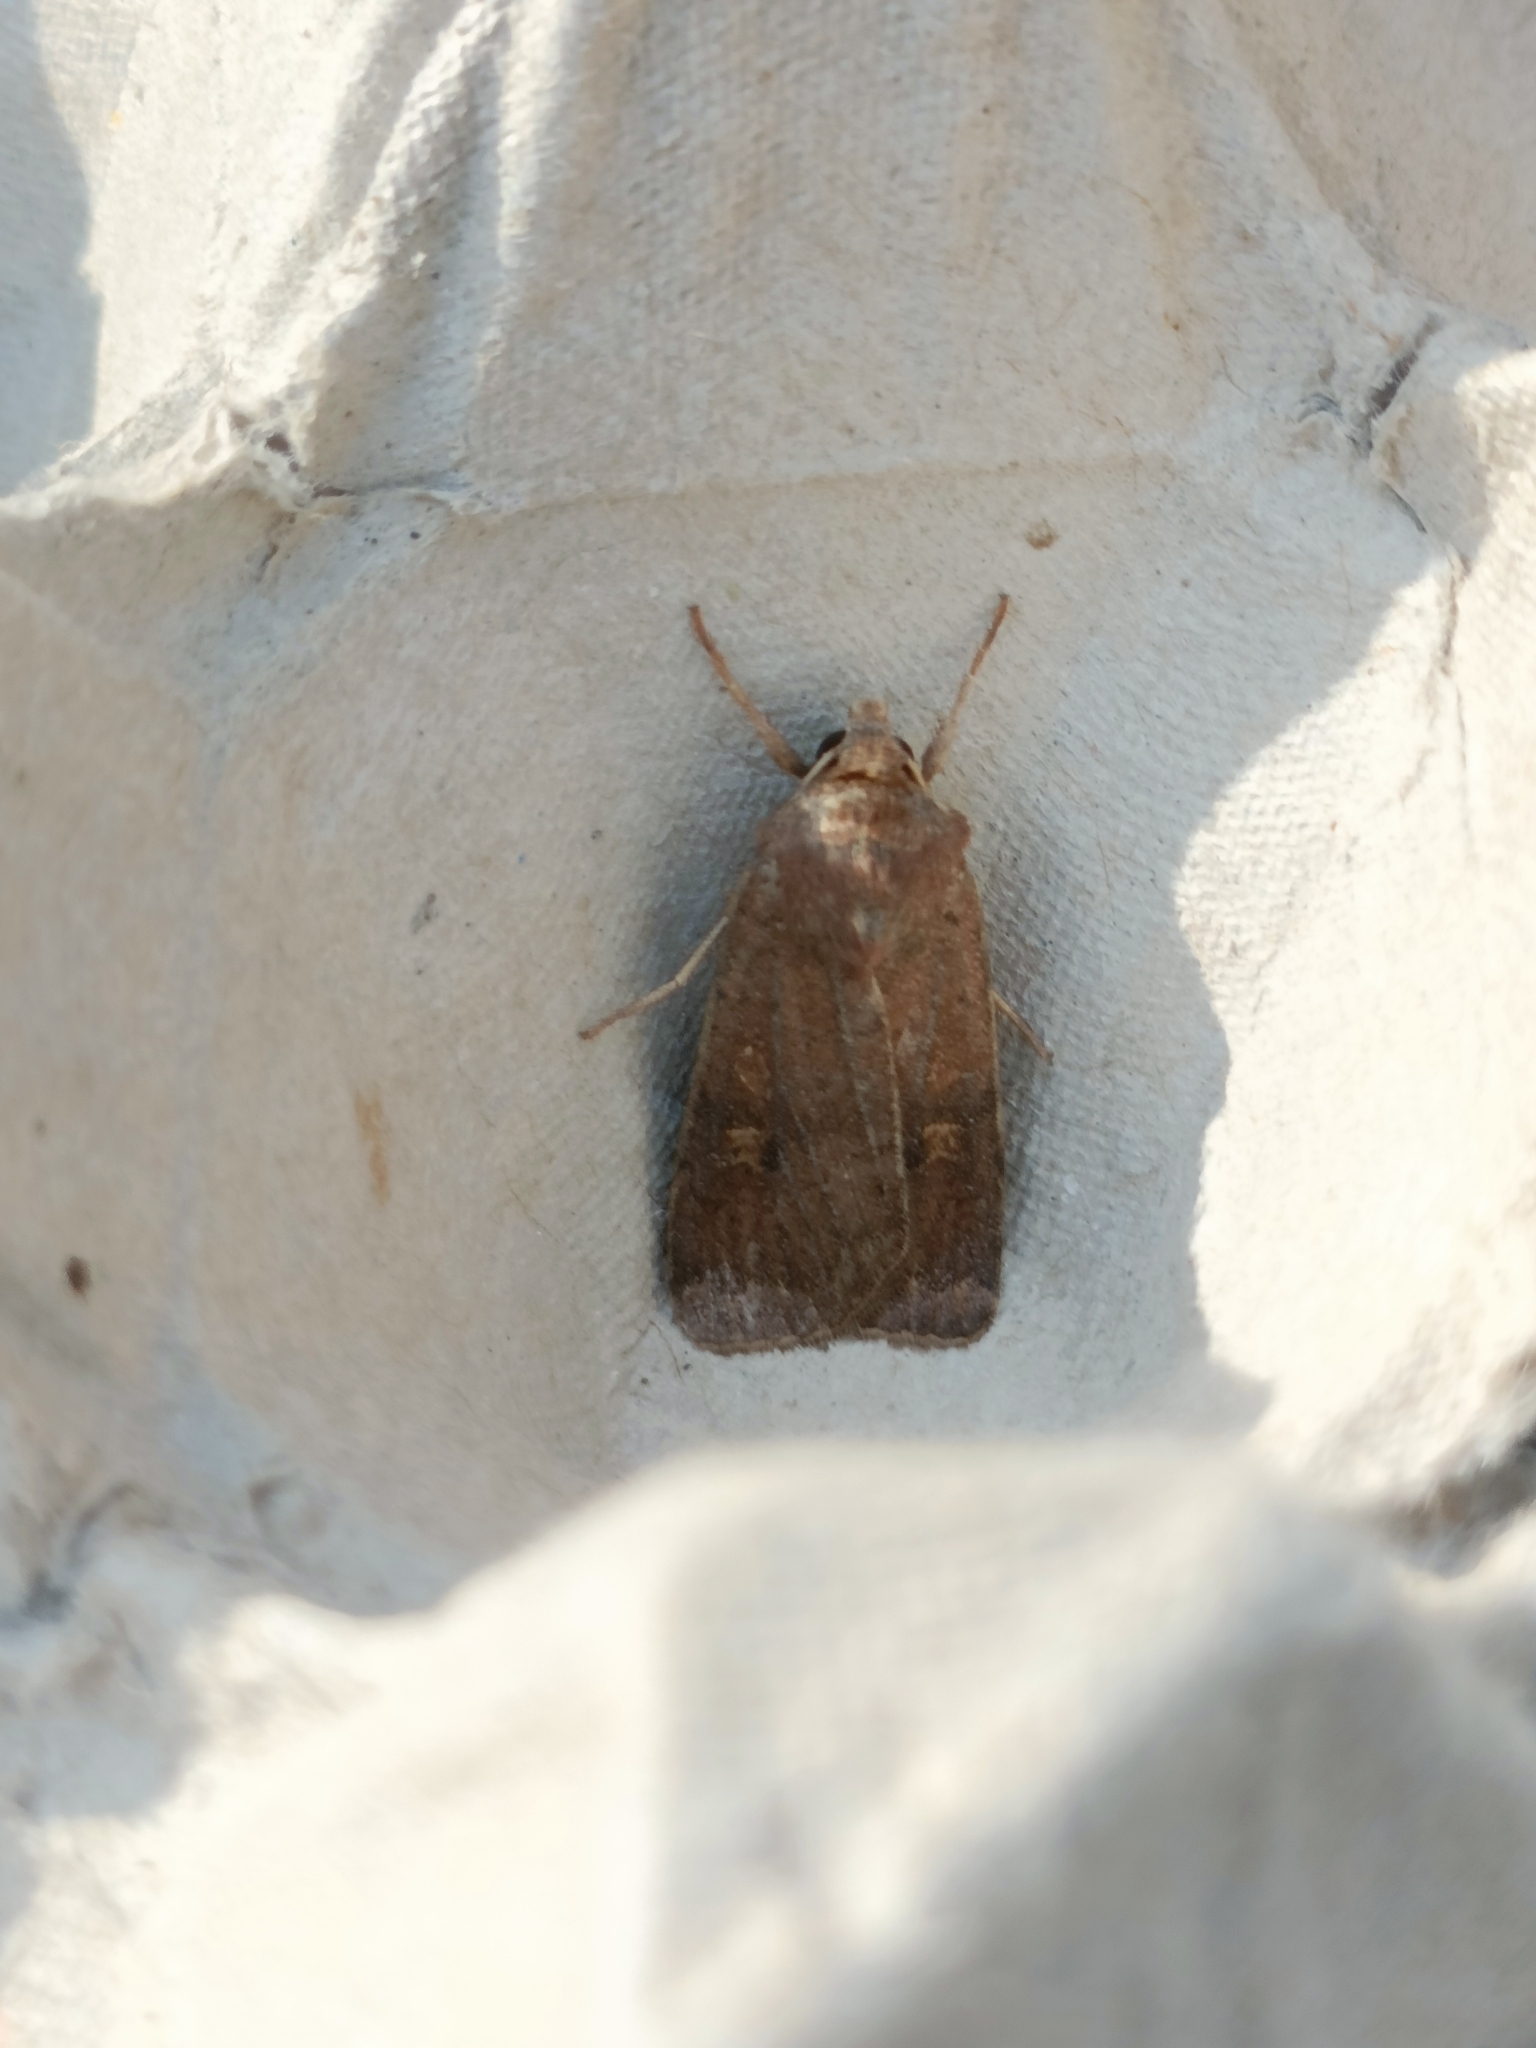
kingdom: Animalia
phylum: Arthropoda
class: Insecta
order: Lepidoptera
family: Noctuidae
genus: Xestia
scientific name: Xestia xanthographa
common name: Square-spot rustic
